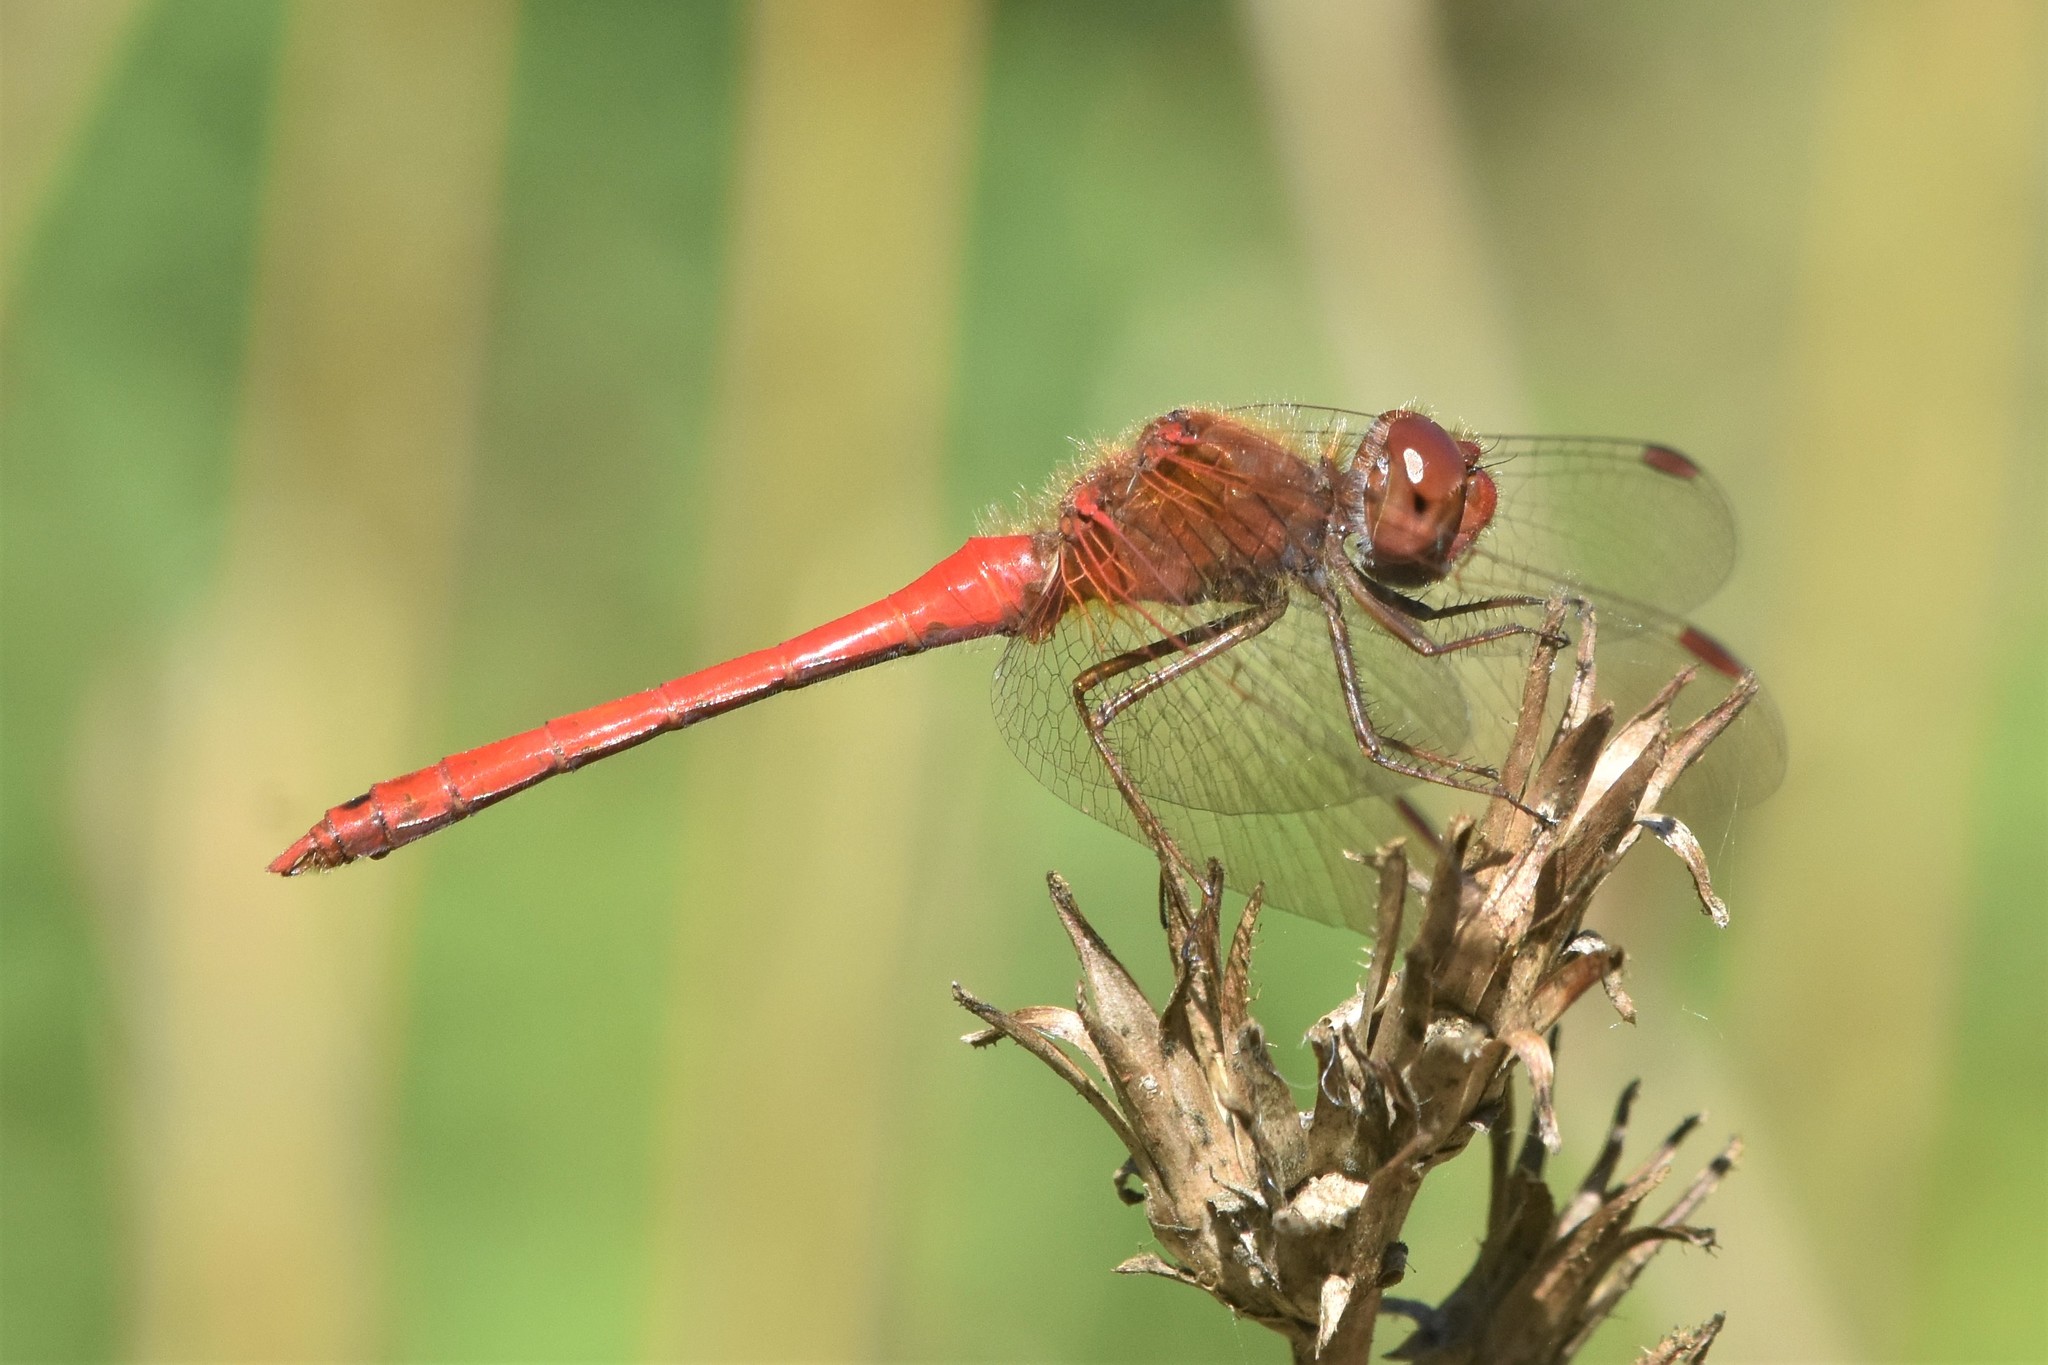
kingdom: Animalia
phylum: Arthropoda
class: Insecta
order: Odonata
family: Libellulidae
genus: Sympetrum
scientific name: Sympetrum vicinum
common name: Autumn meadowhawk
